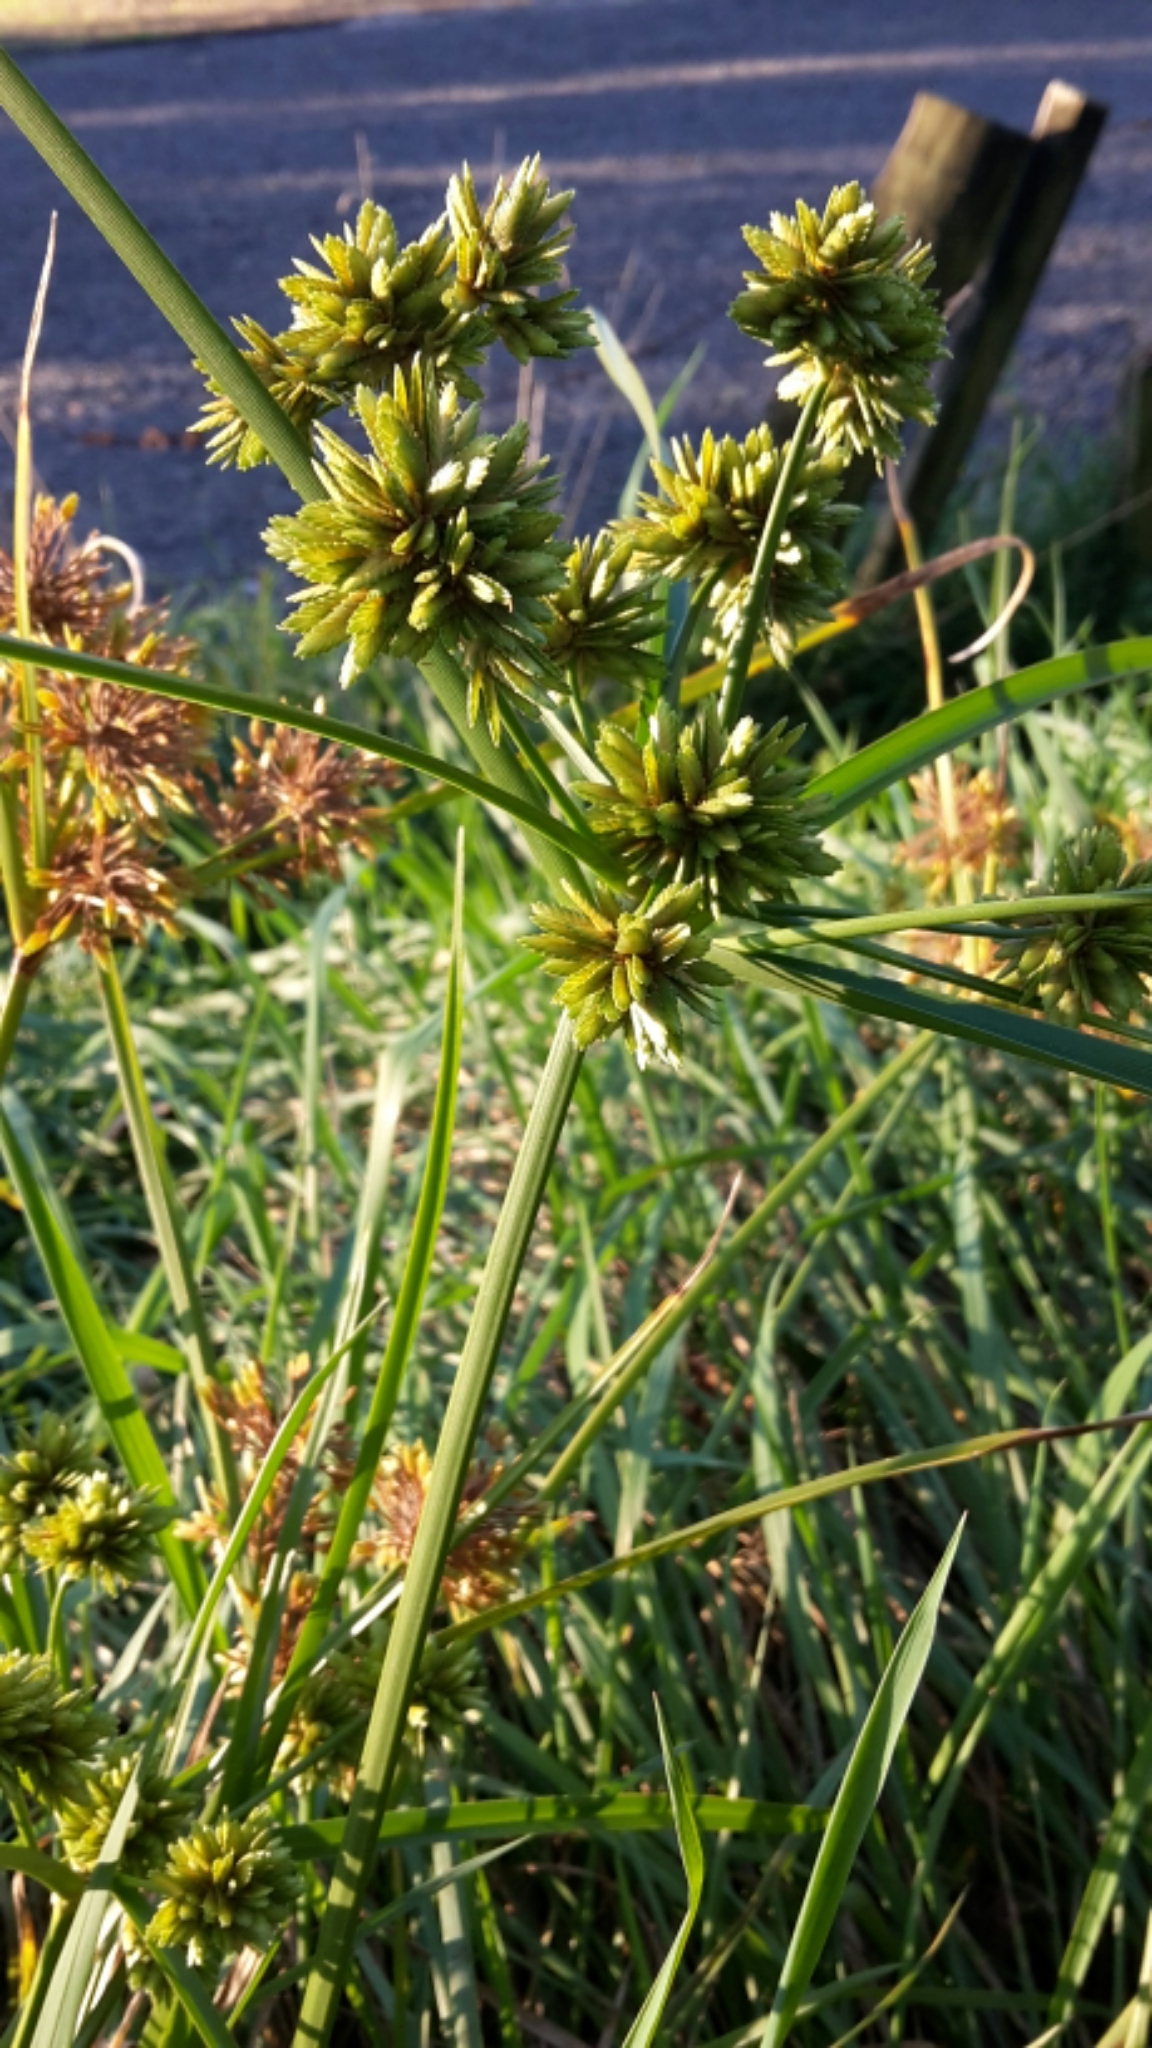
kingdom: Plantae
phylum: Tracheophyta
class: Liliopsida
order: Poales
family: Cyperaceae
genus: Cyperus
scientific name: Cyperus eragrostis
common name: Tall flatsedge
